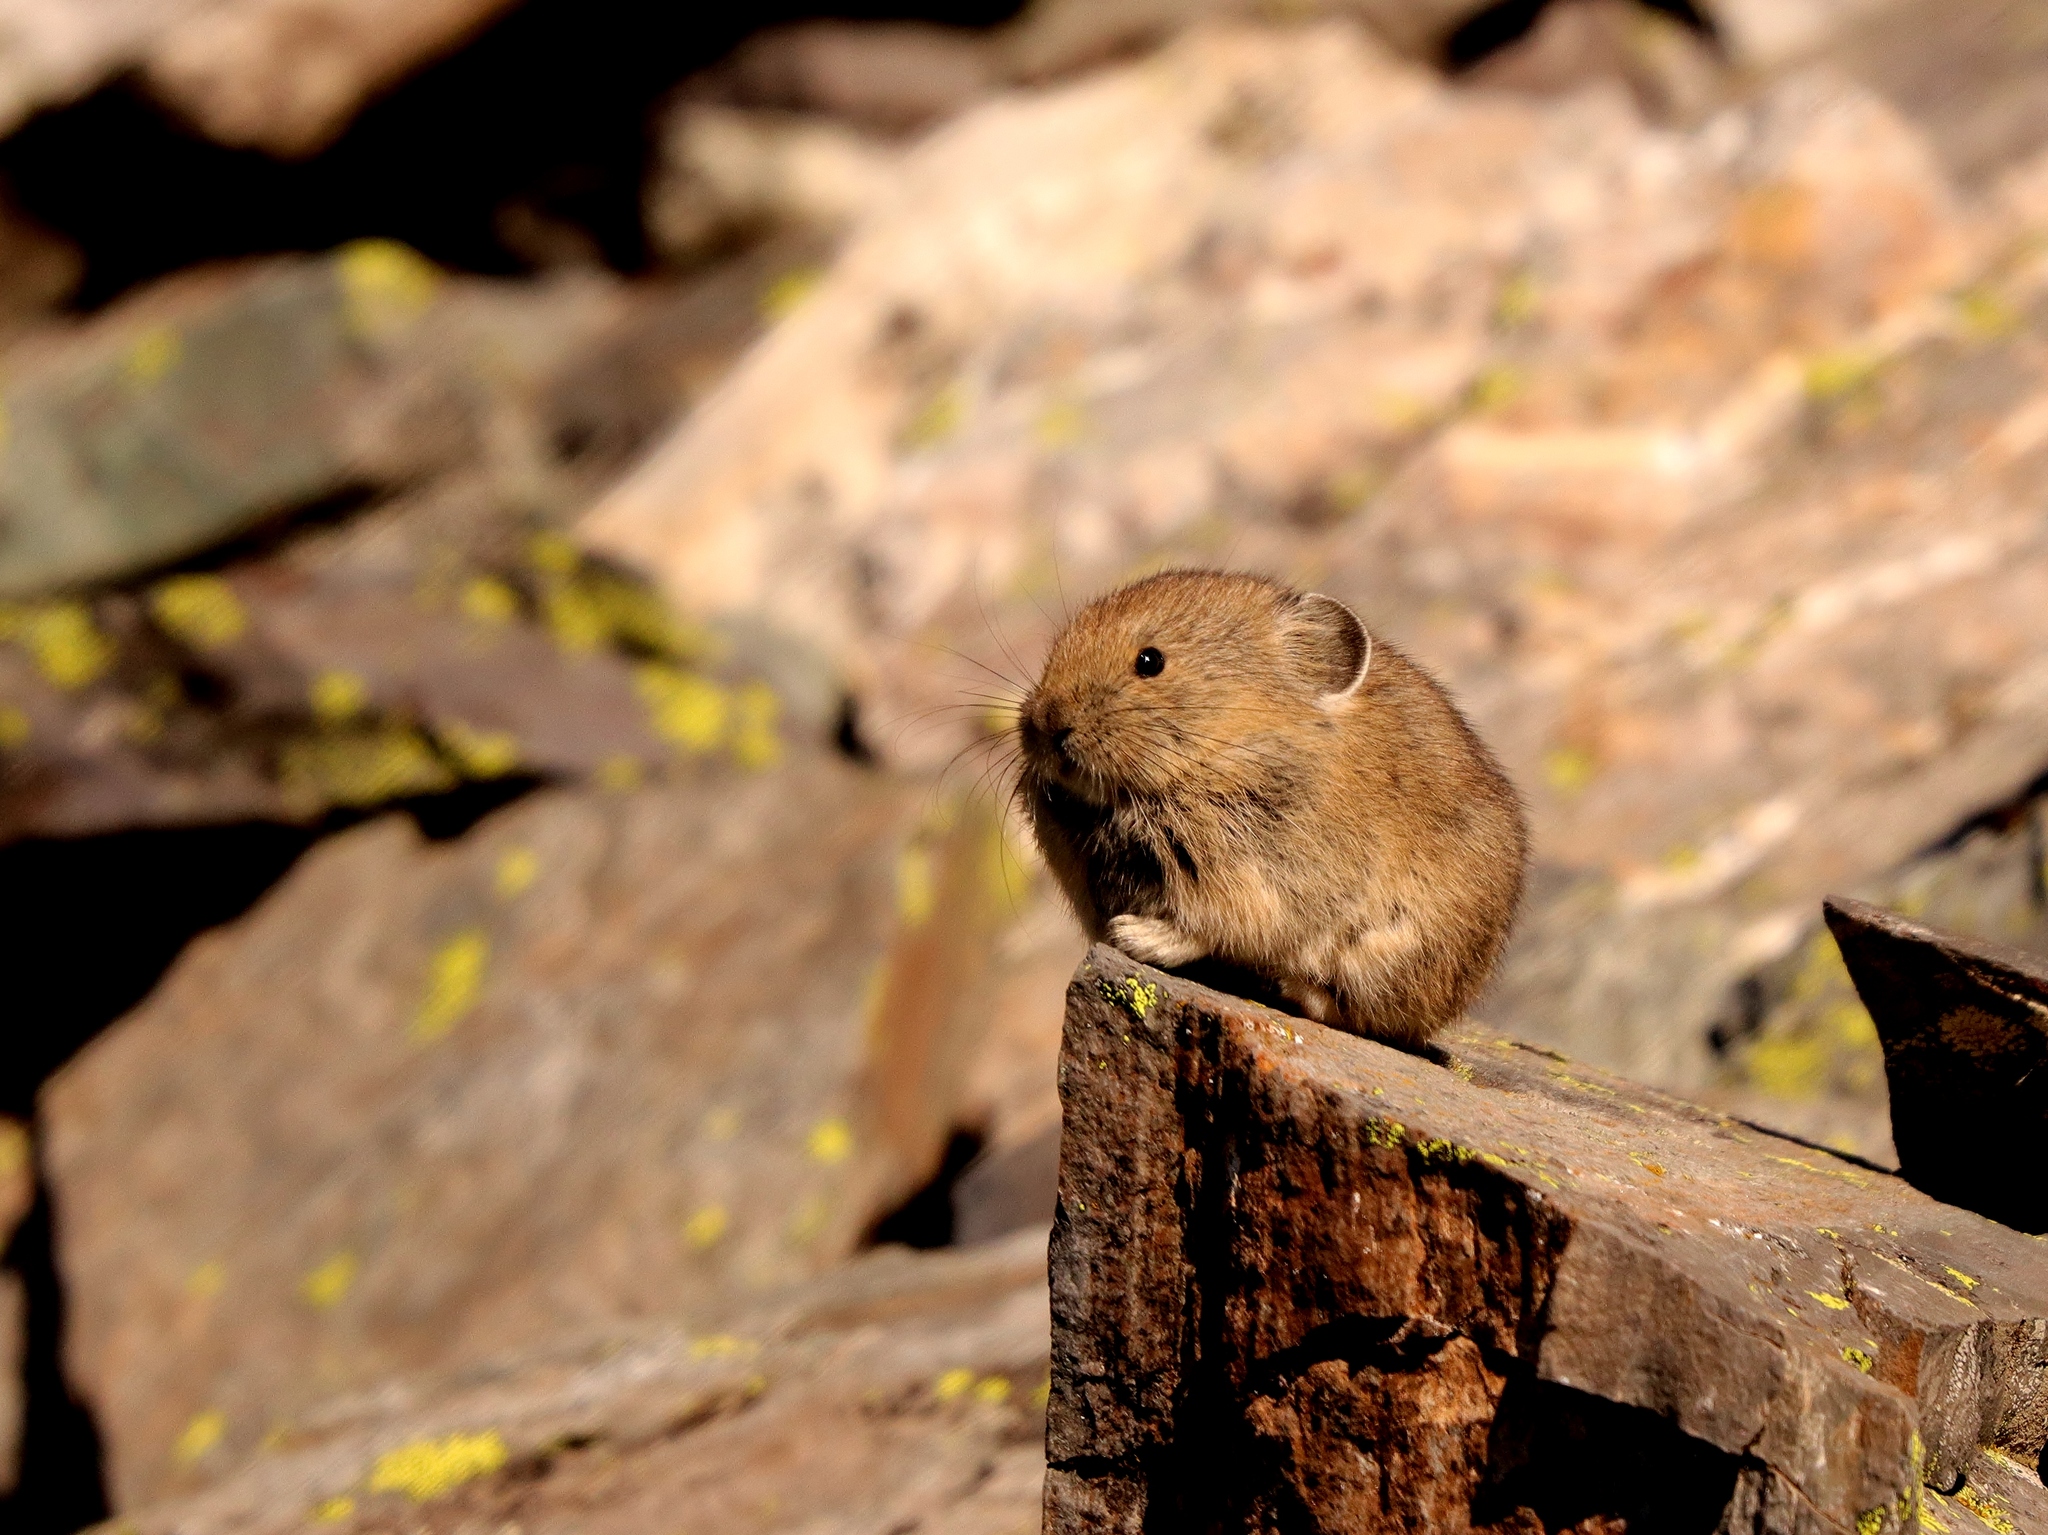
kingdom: Animalia
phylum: Chordata
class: Mammalia
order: Lagomorpha
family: Ochotonidae
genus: Ochotona
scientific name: Ochotona princeps
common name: American pika
